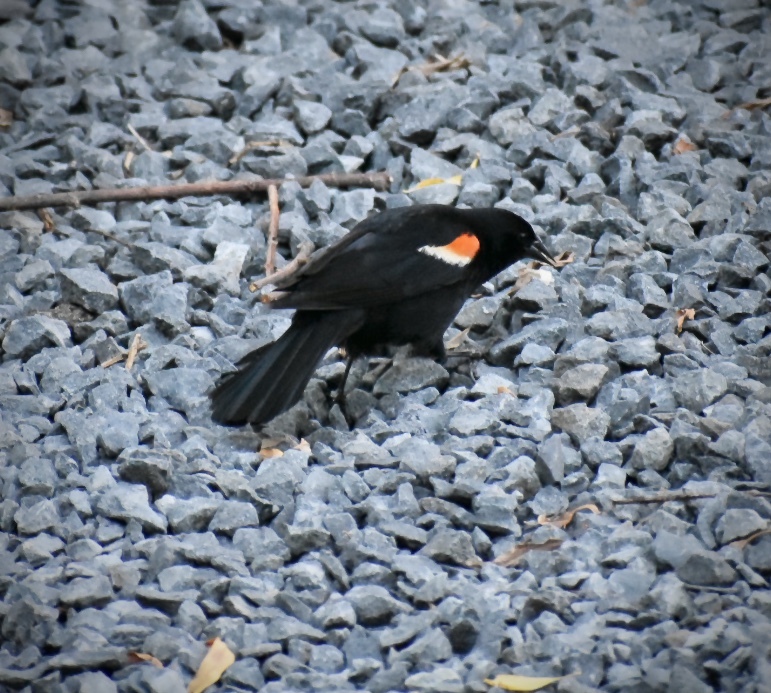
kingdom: Animalia
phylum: Chordata
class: Aves
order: Passeriformes
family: Icteridae
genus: Agelaius
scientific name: Agelaius phoeniceus
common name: Red-winged blackbird
